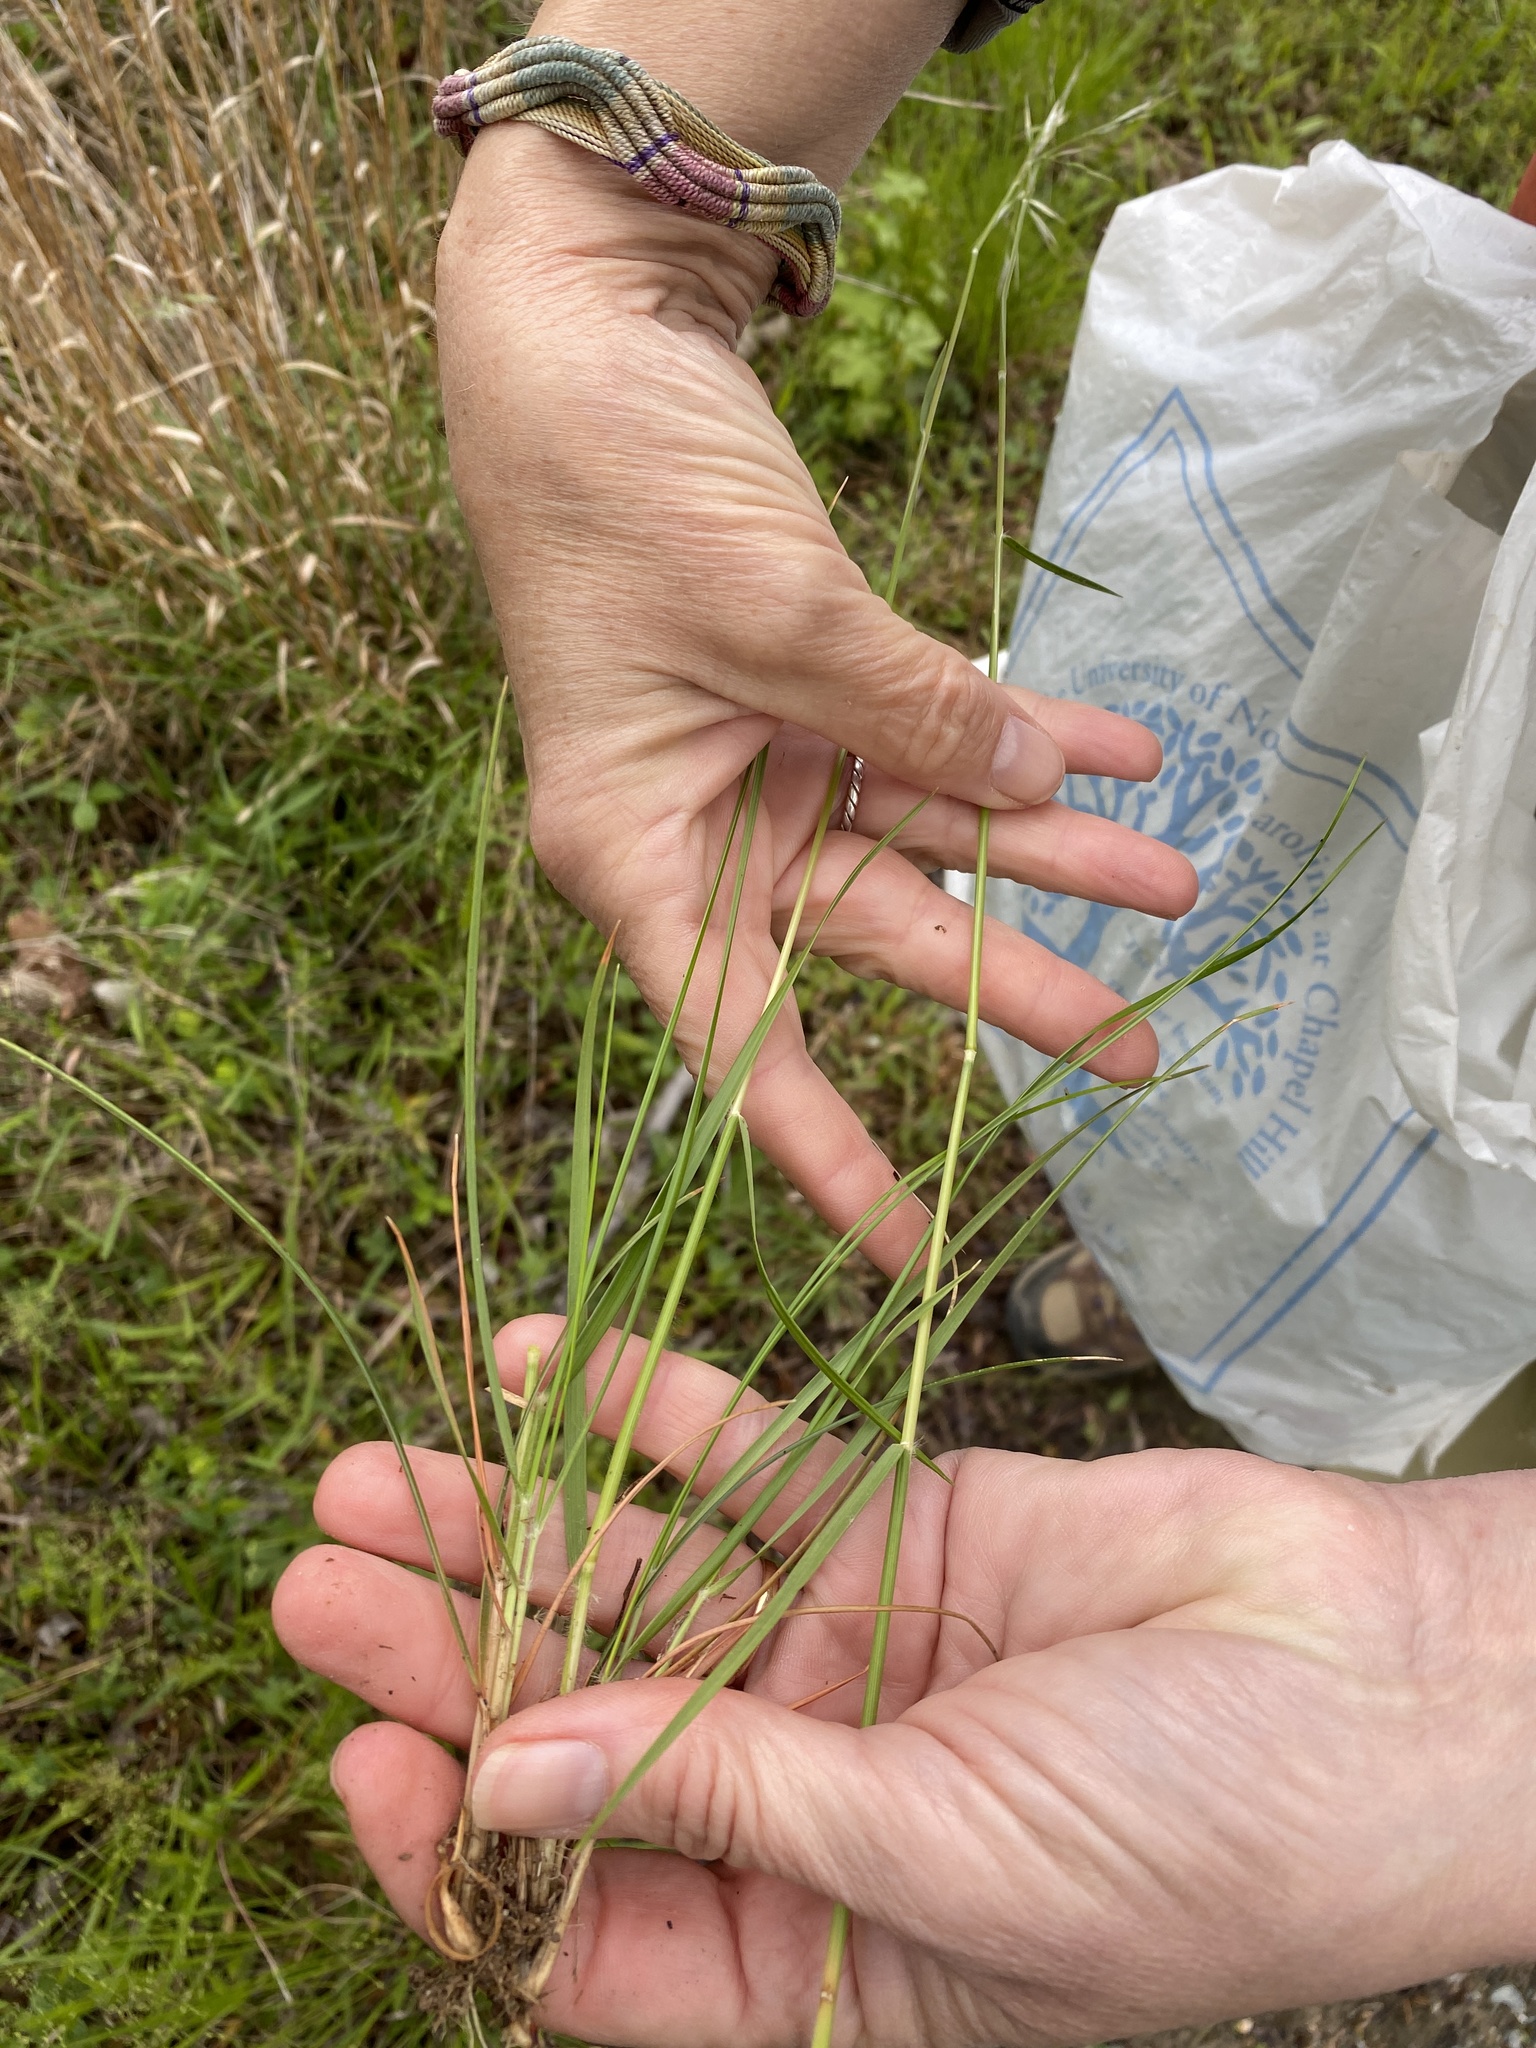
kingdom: Plantae
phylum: Tracheophyta
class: Liliopsida
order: Poales
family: Poaceae
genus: Danthonia
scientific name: Danthonia sericea
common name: Downy danthonia
